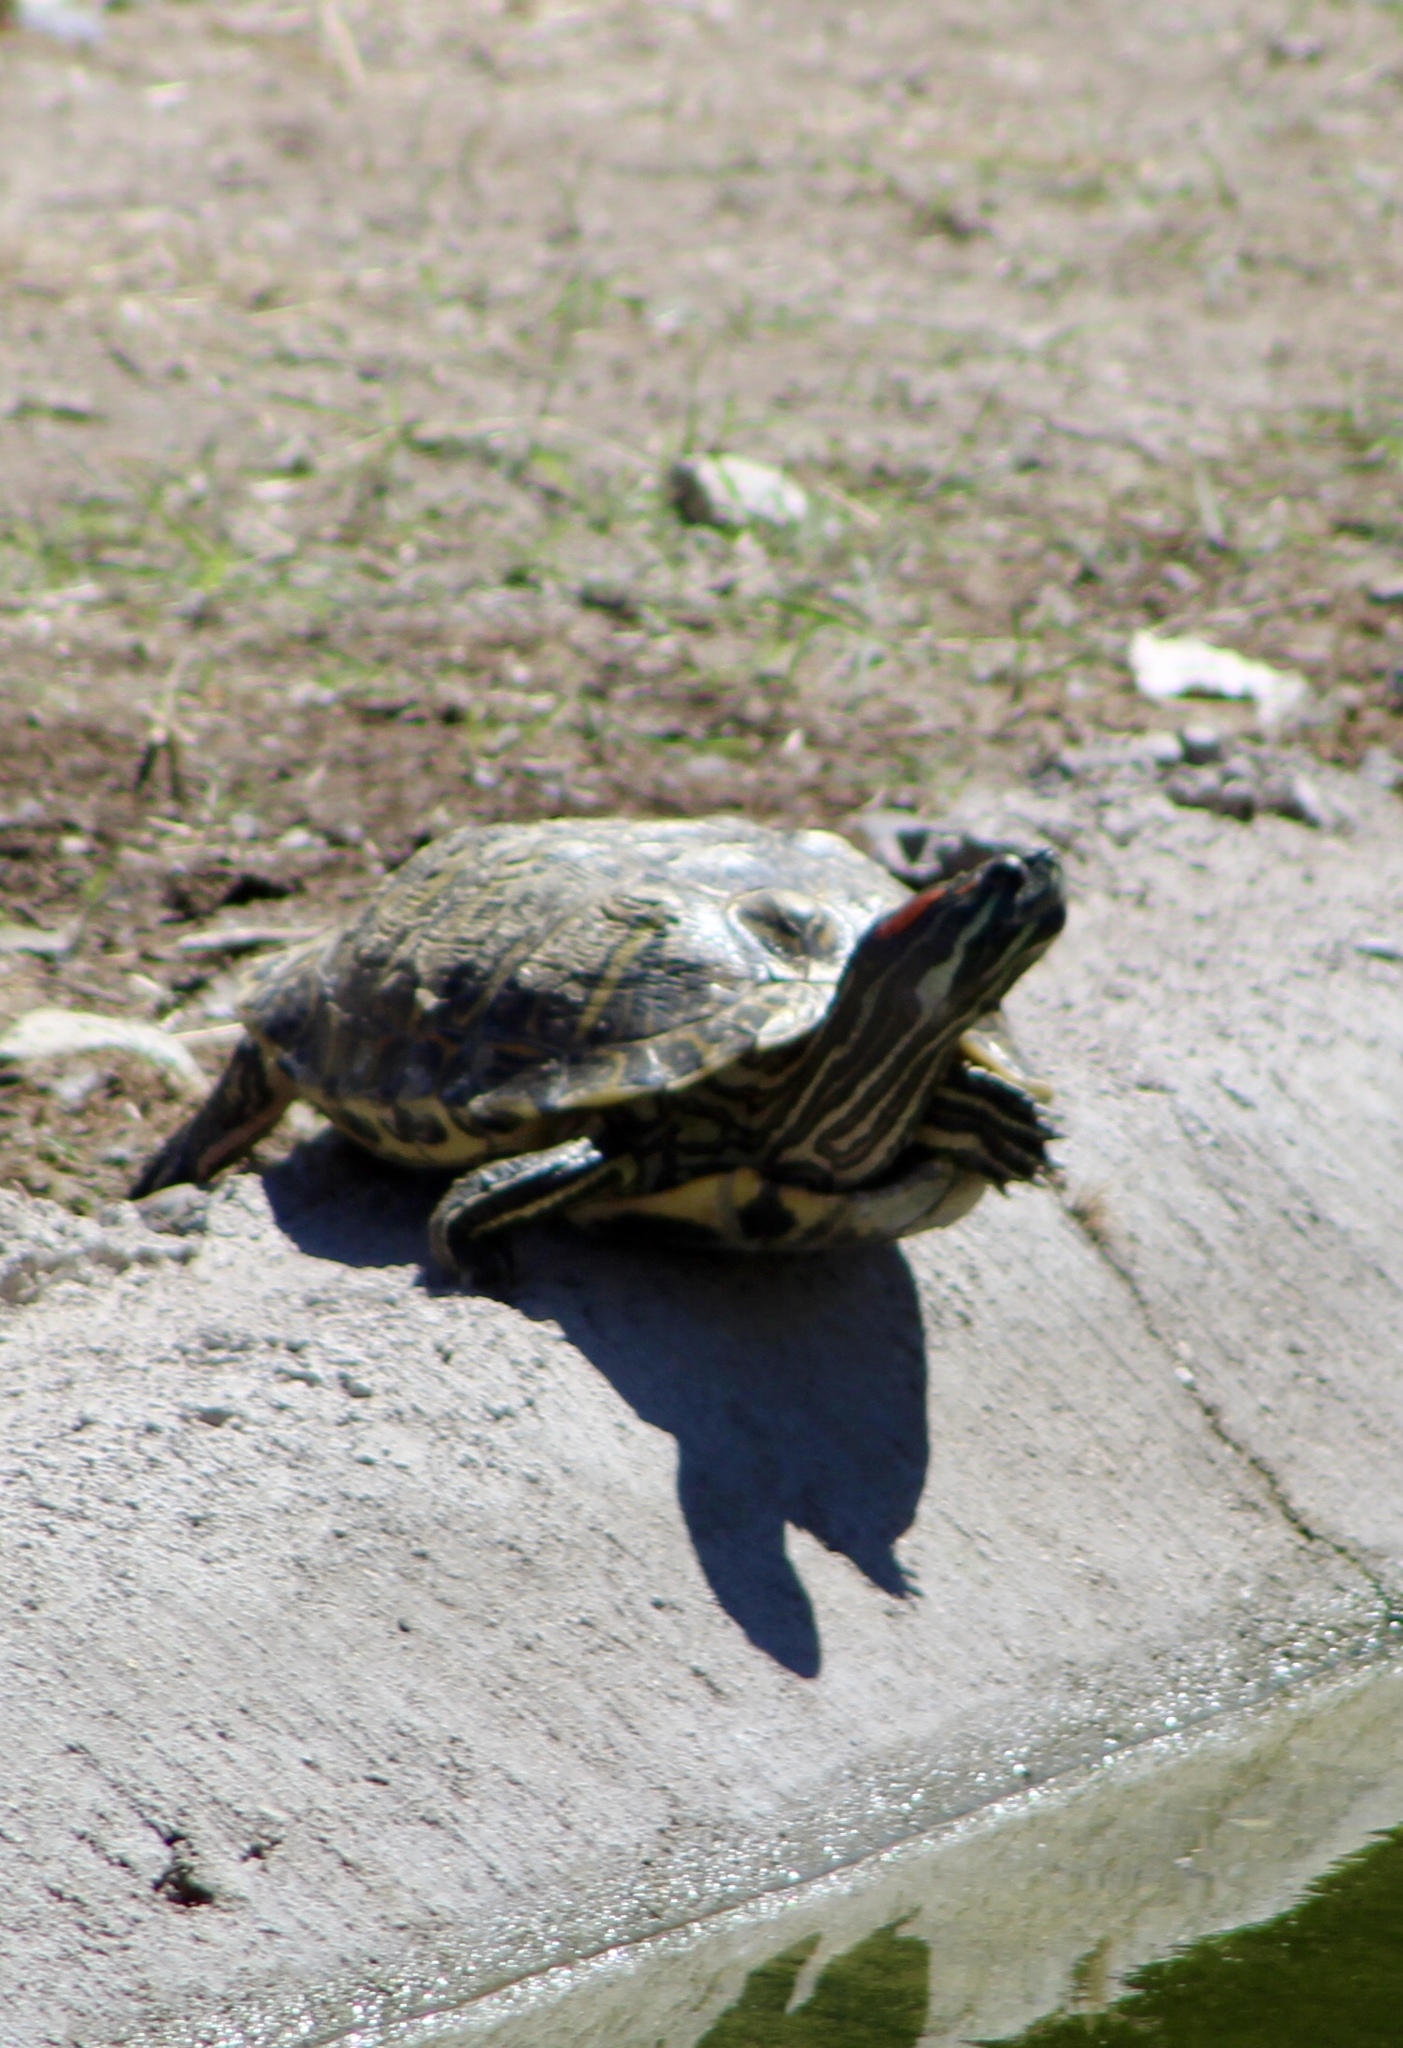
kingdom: Animalia
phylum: Chordata
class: Testudines
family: Emydidae
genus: Trachemys
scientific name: Trachemys scripta
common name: Slider
